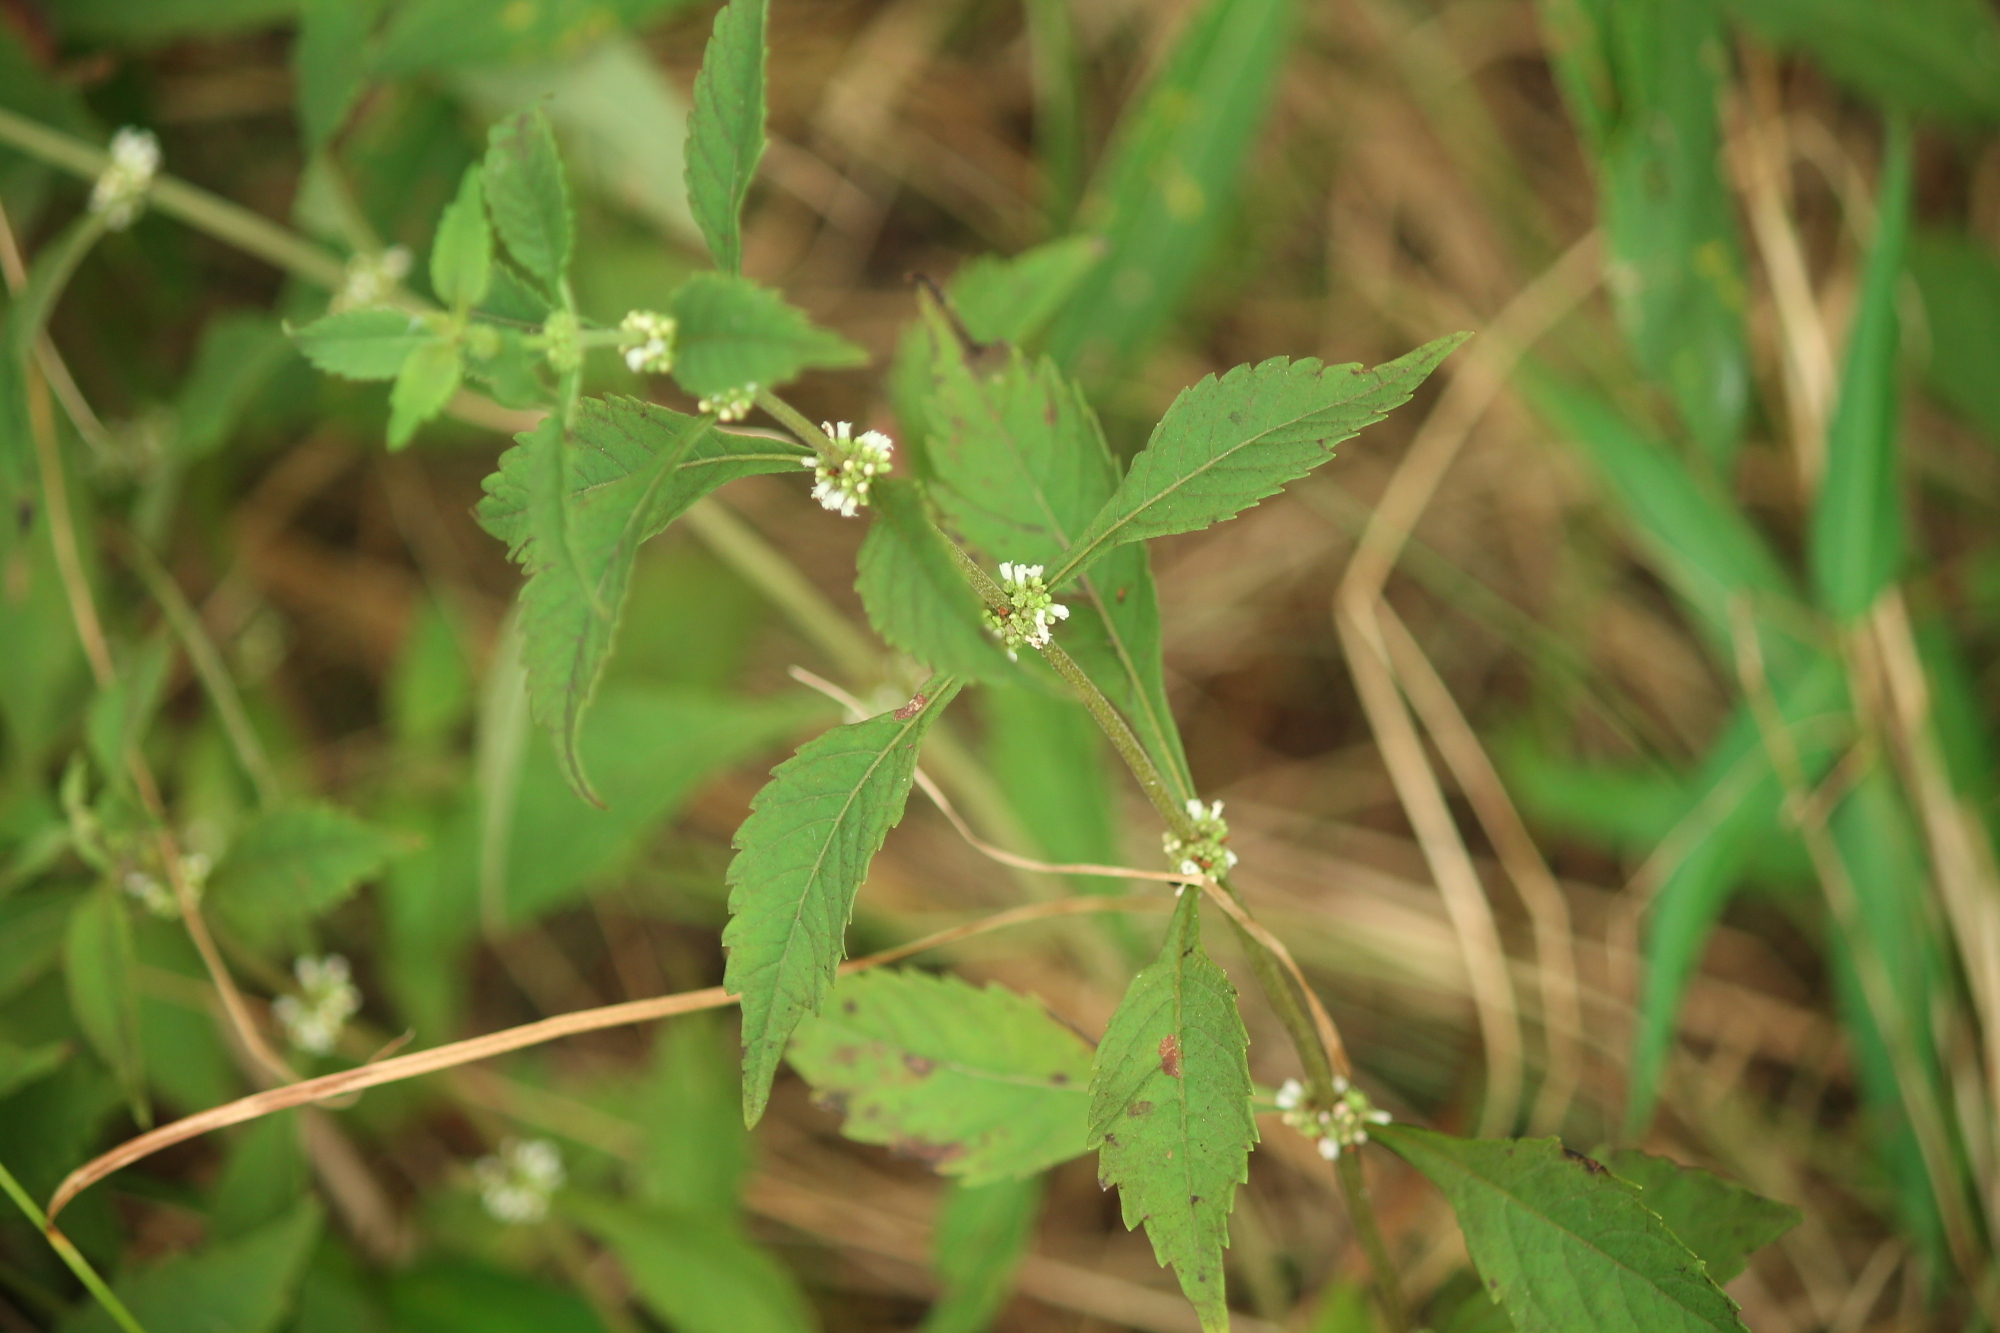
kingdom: Plantae
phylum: Tracheophyta
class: Magnoliopsida
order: Lamiales
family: Lamiaceae
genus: Lycopus
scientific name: Lycopus virginicus
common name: Bugleweed
